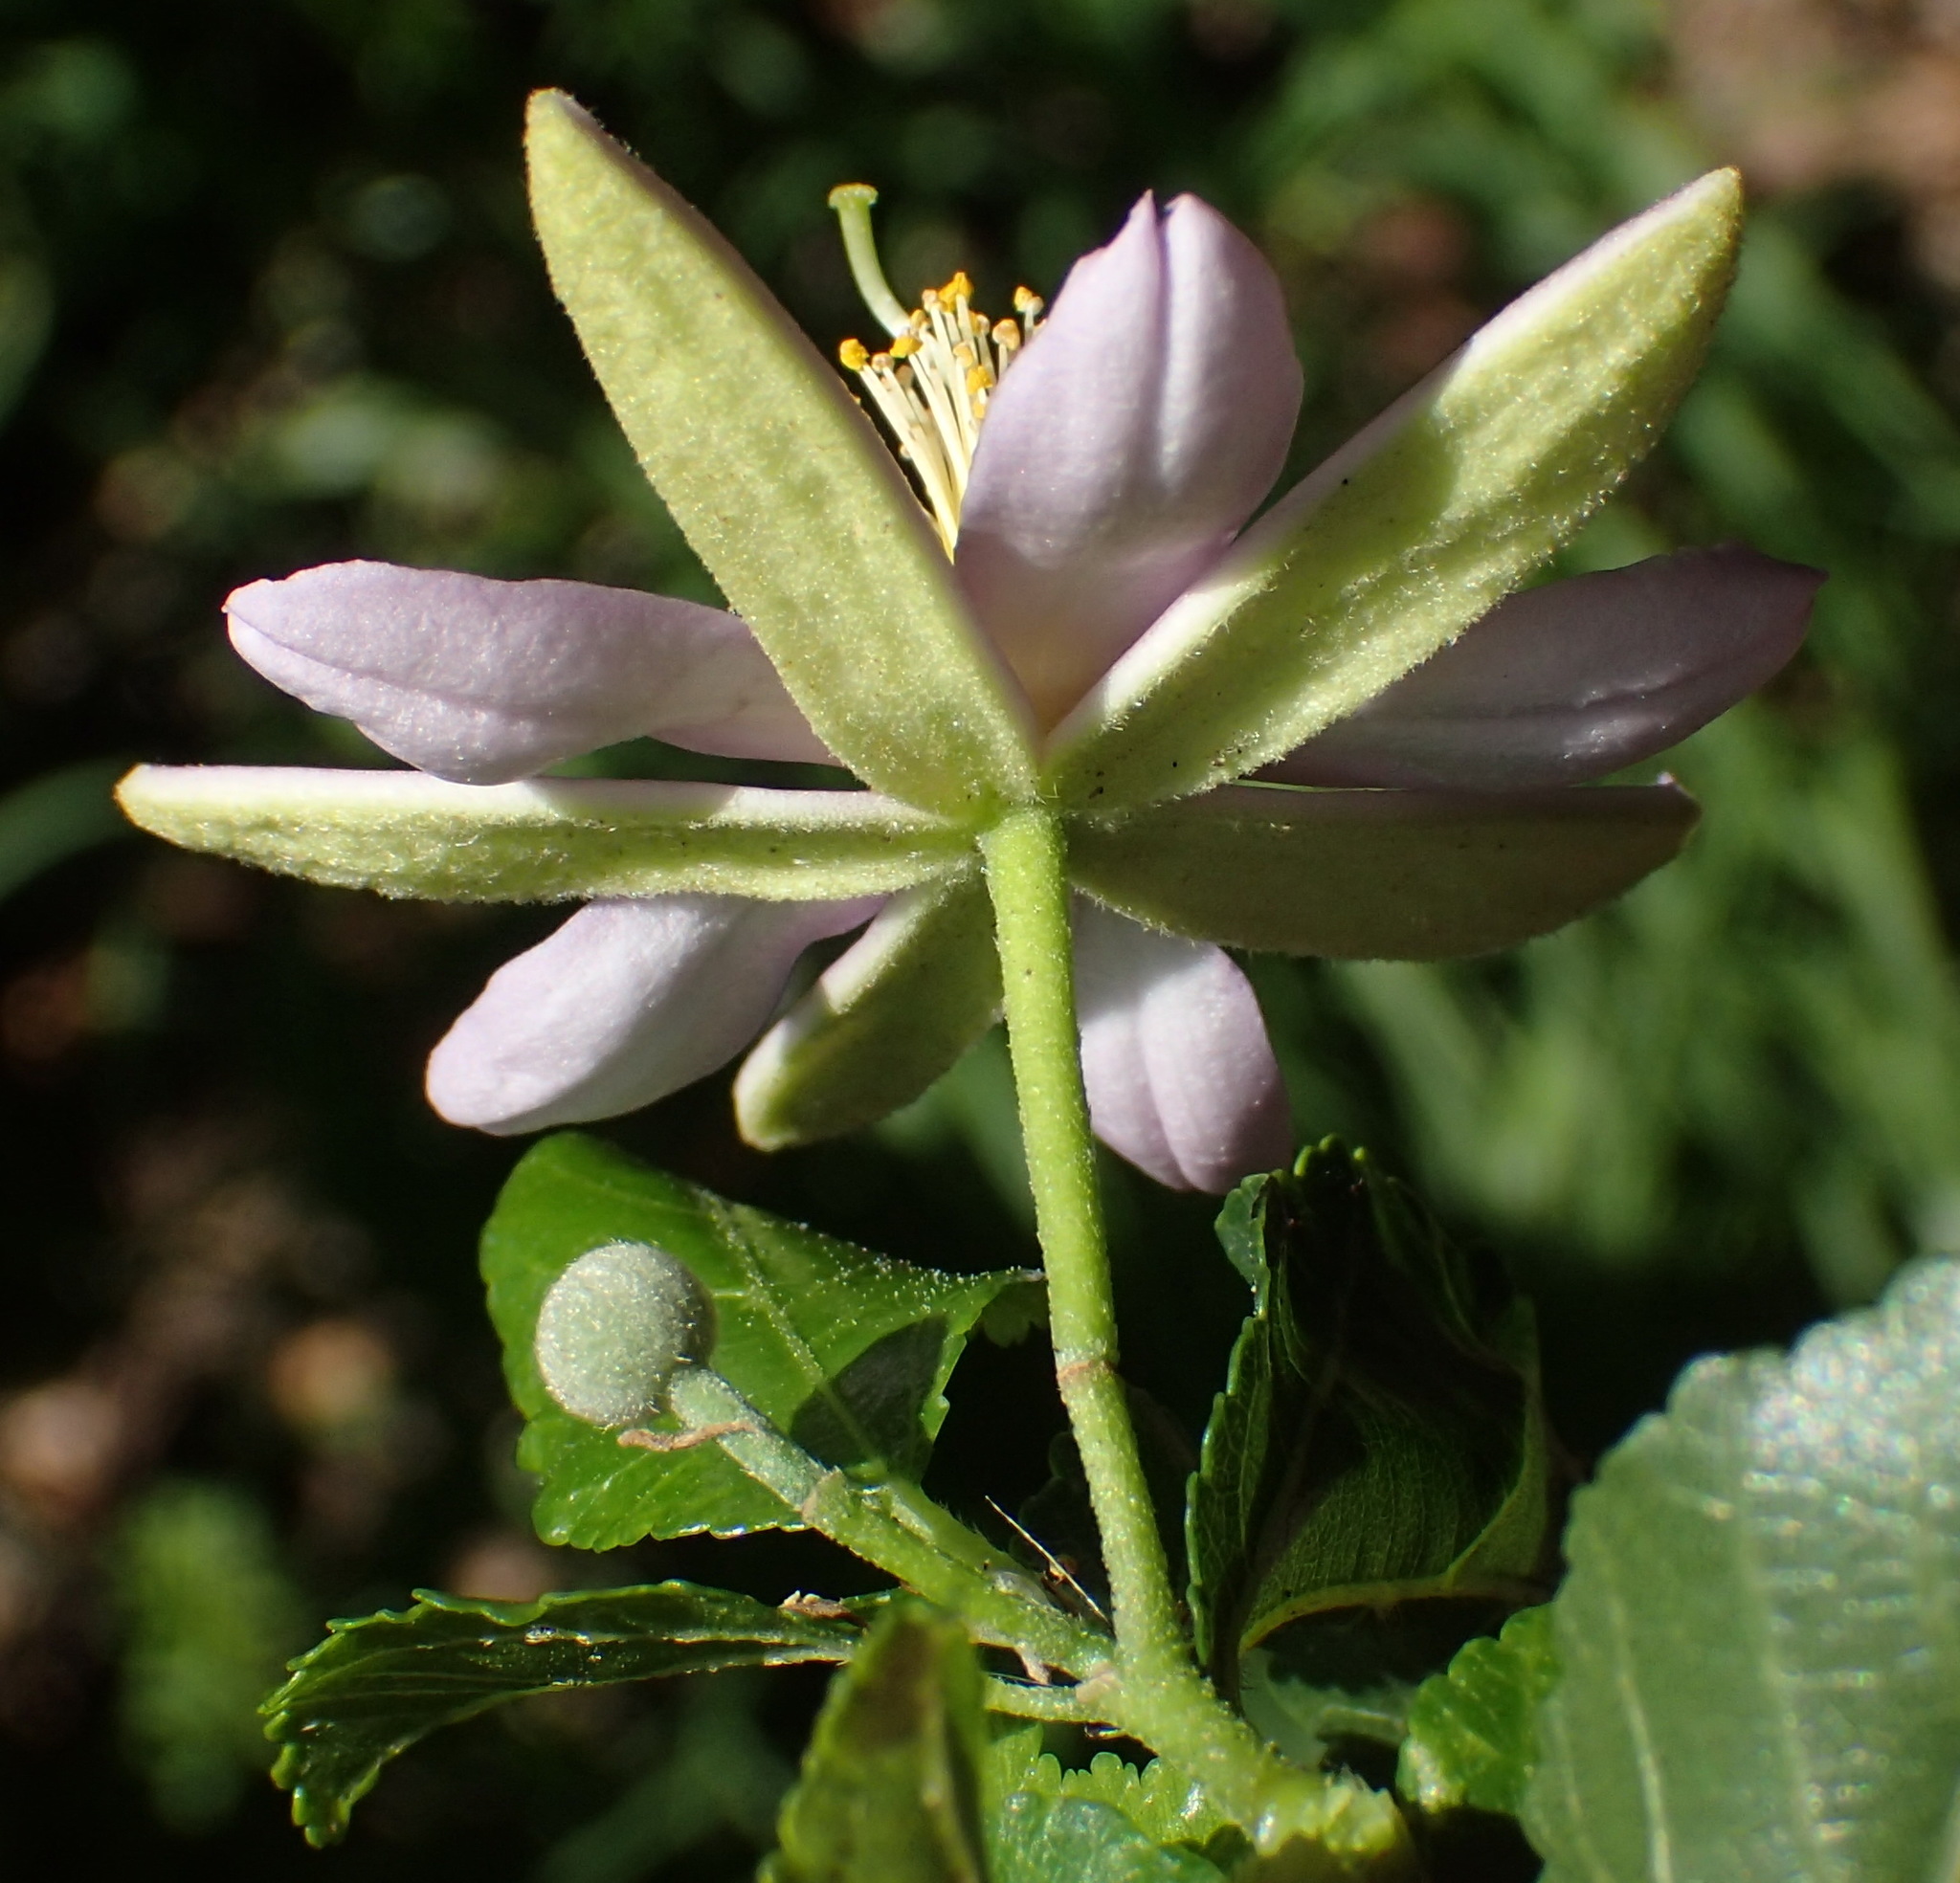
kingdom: Plantae
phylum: Tracheophyta
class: Magnoliopsida
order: Malvales
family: Malvaceae
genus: Grewia
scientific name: Grewia occidentalis
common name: Crossberry
